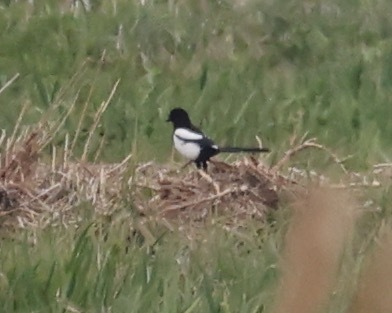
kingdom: Animalia
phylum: Chordata
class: Aves
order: Passeriformes
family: Corvidae
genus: Pica
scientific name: Pica pica
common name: Eurasian magpie
